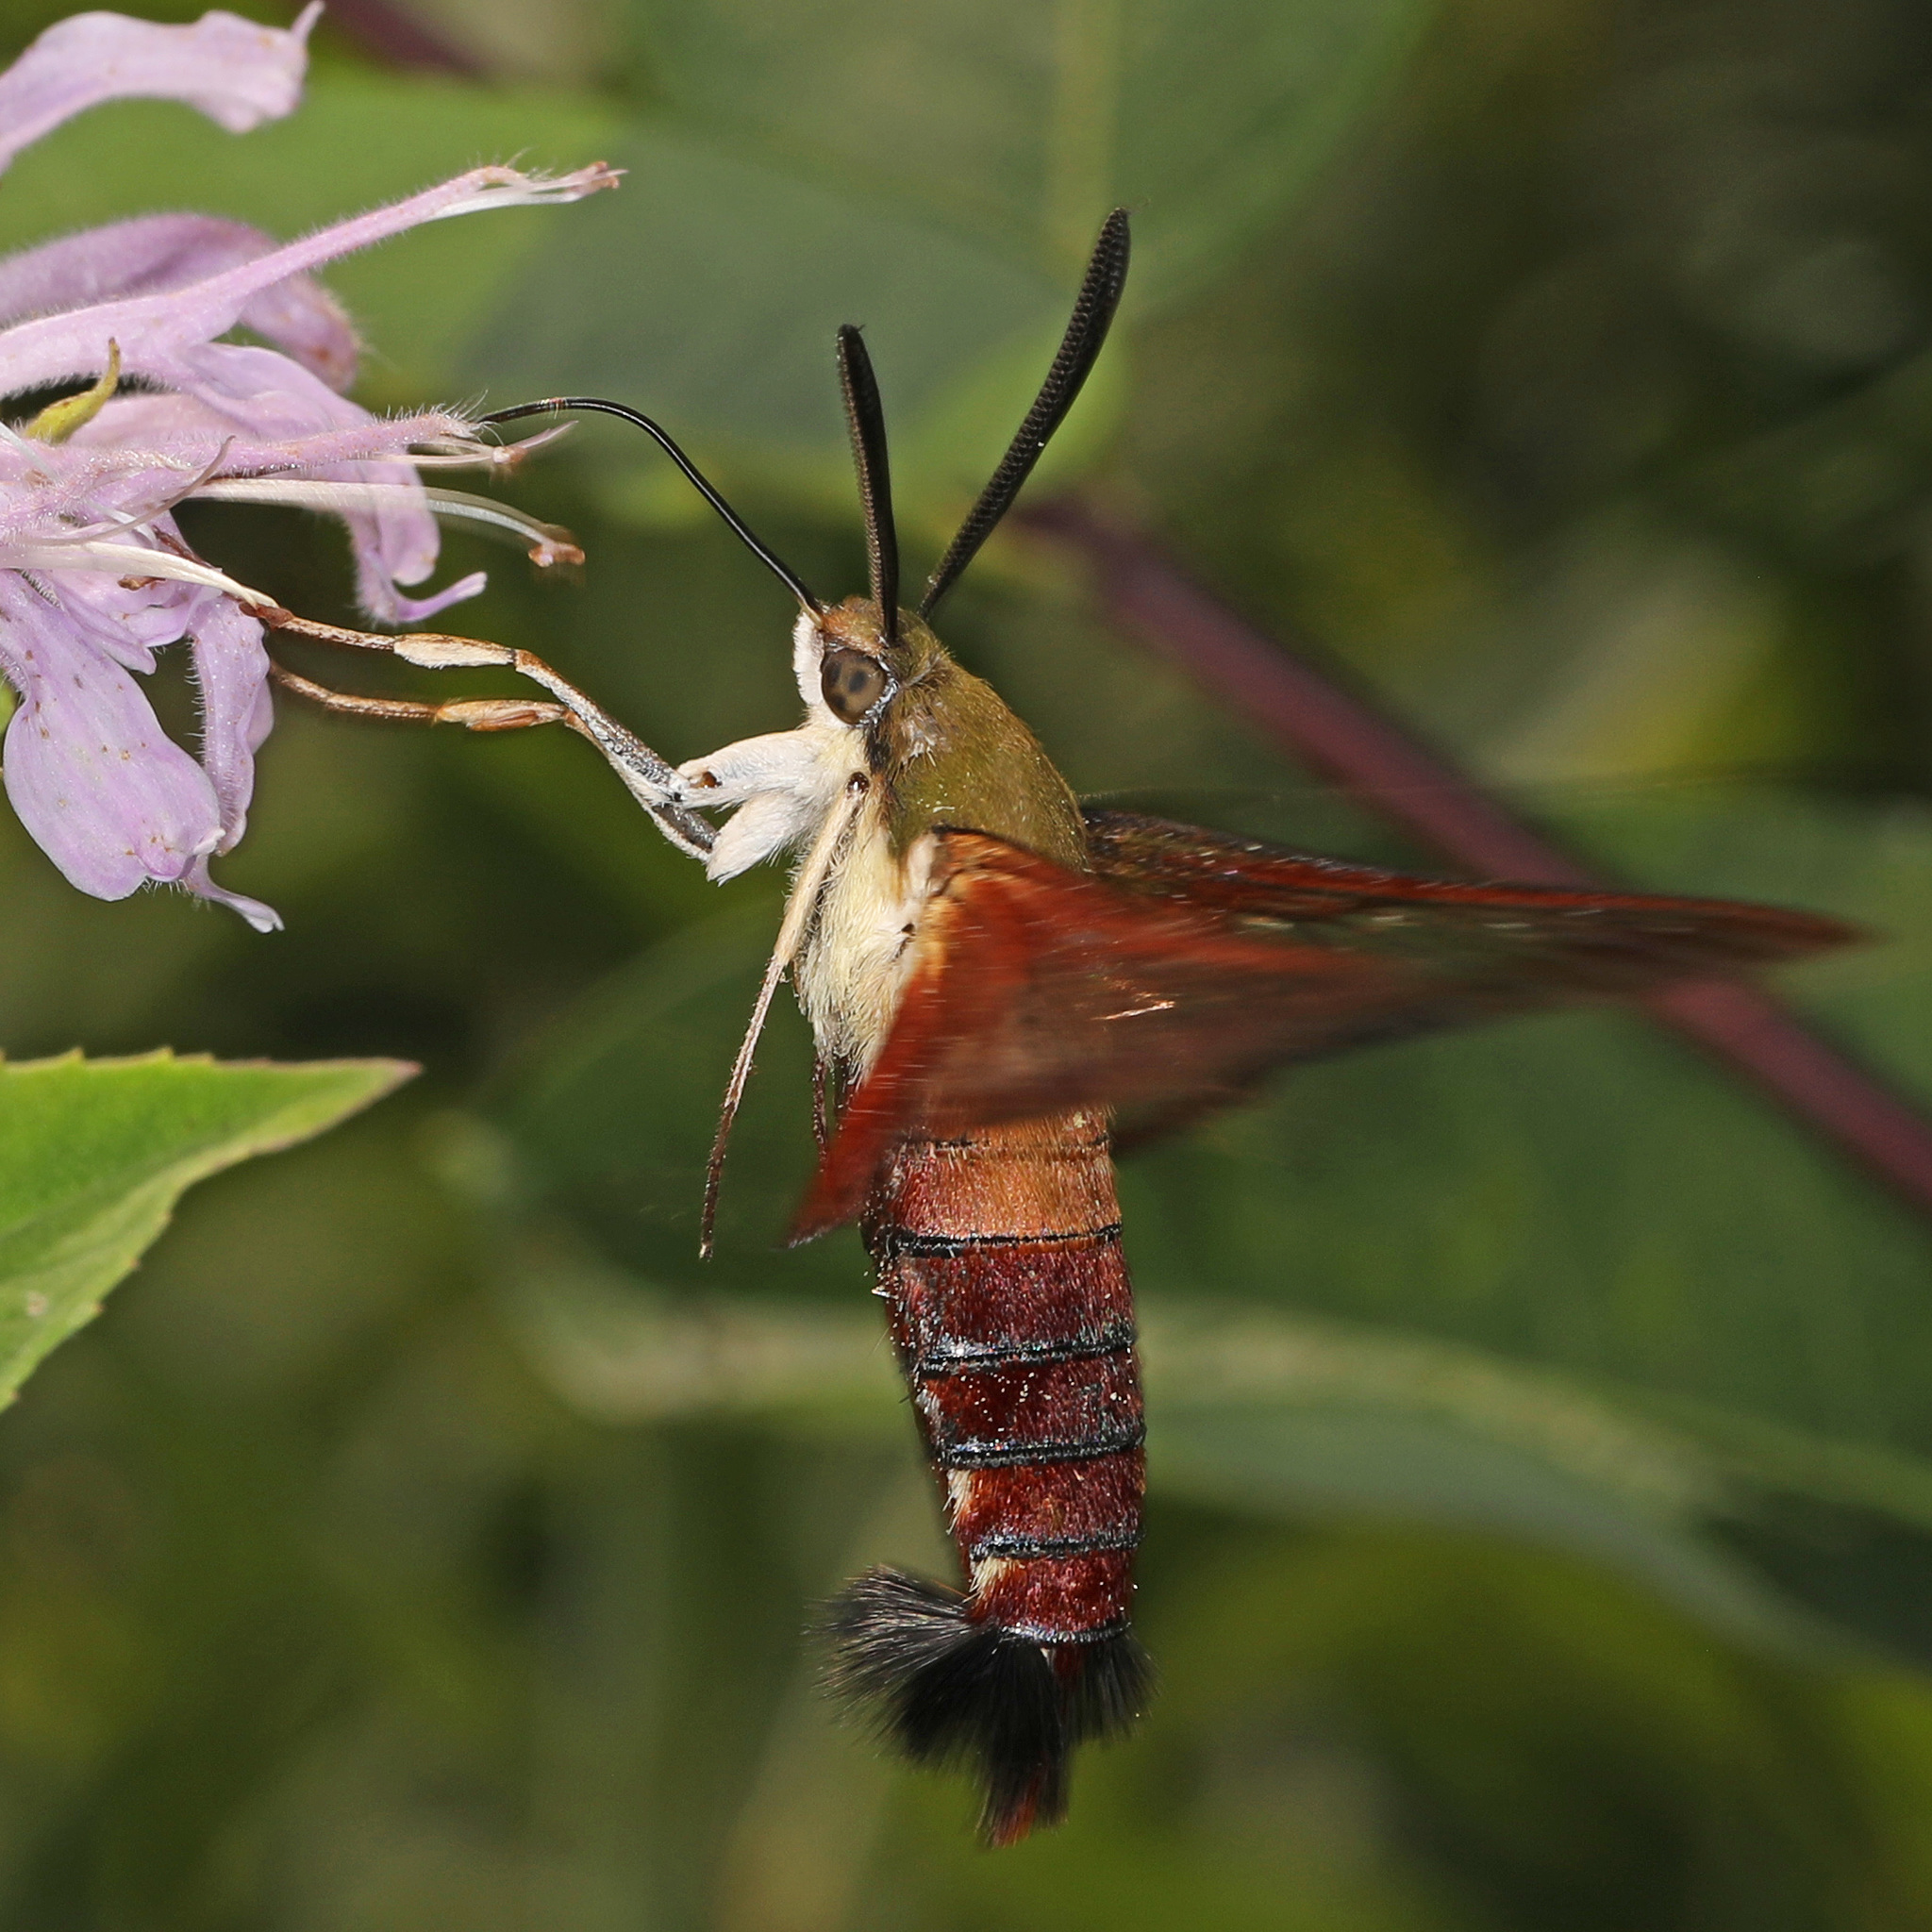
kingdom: Animalia
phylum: Arthropoda
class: Insecta
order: Lepidoptera
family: Sphingidae
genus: Hemaris
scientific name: Hemaris thysbe
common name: Common clear-wing
